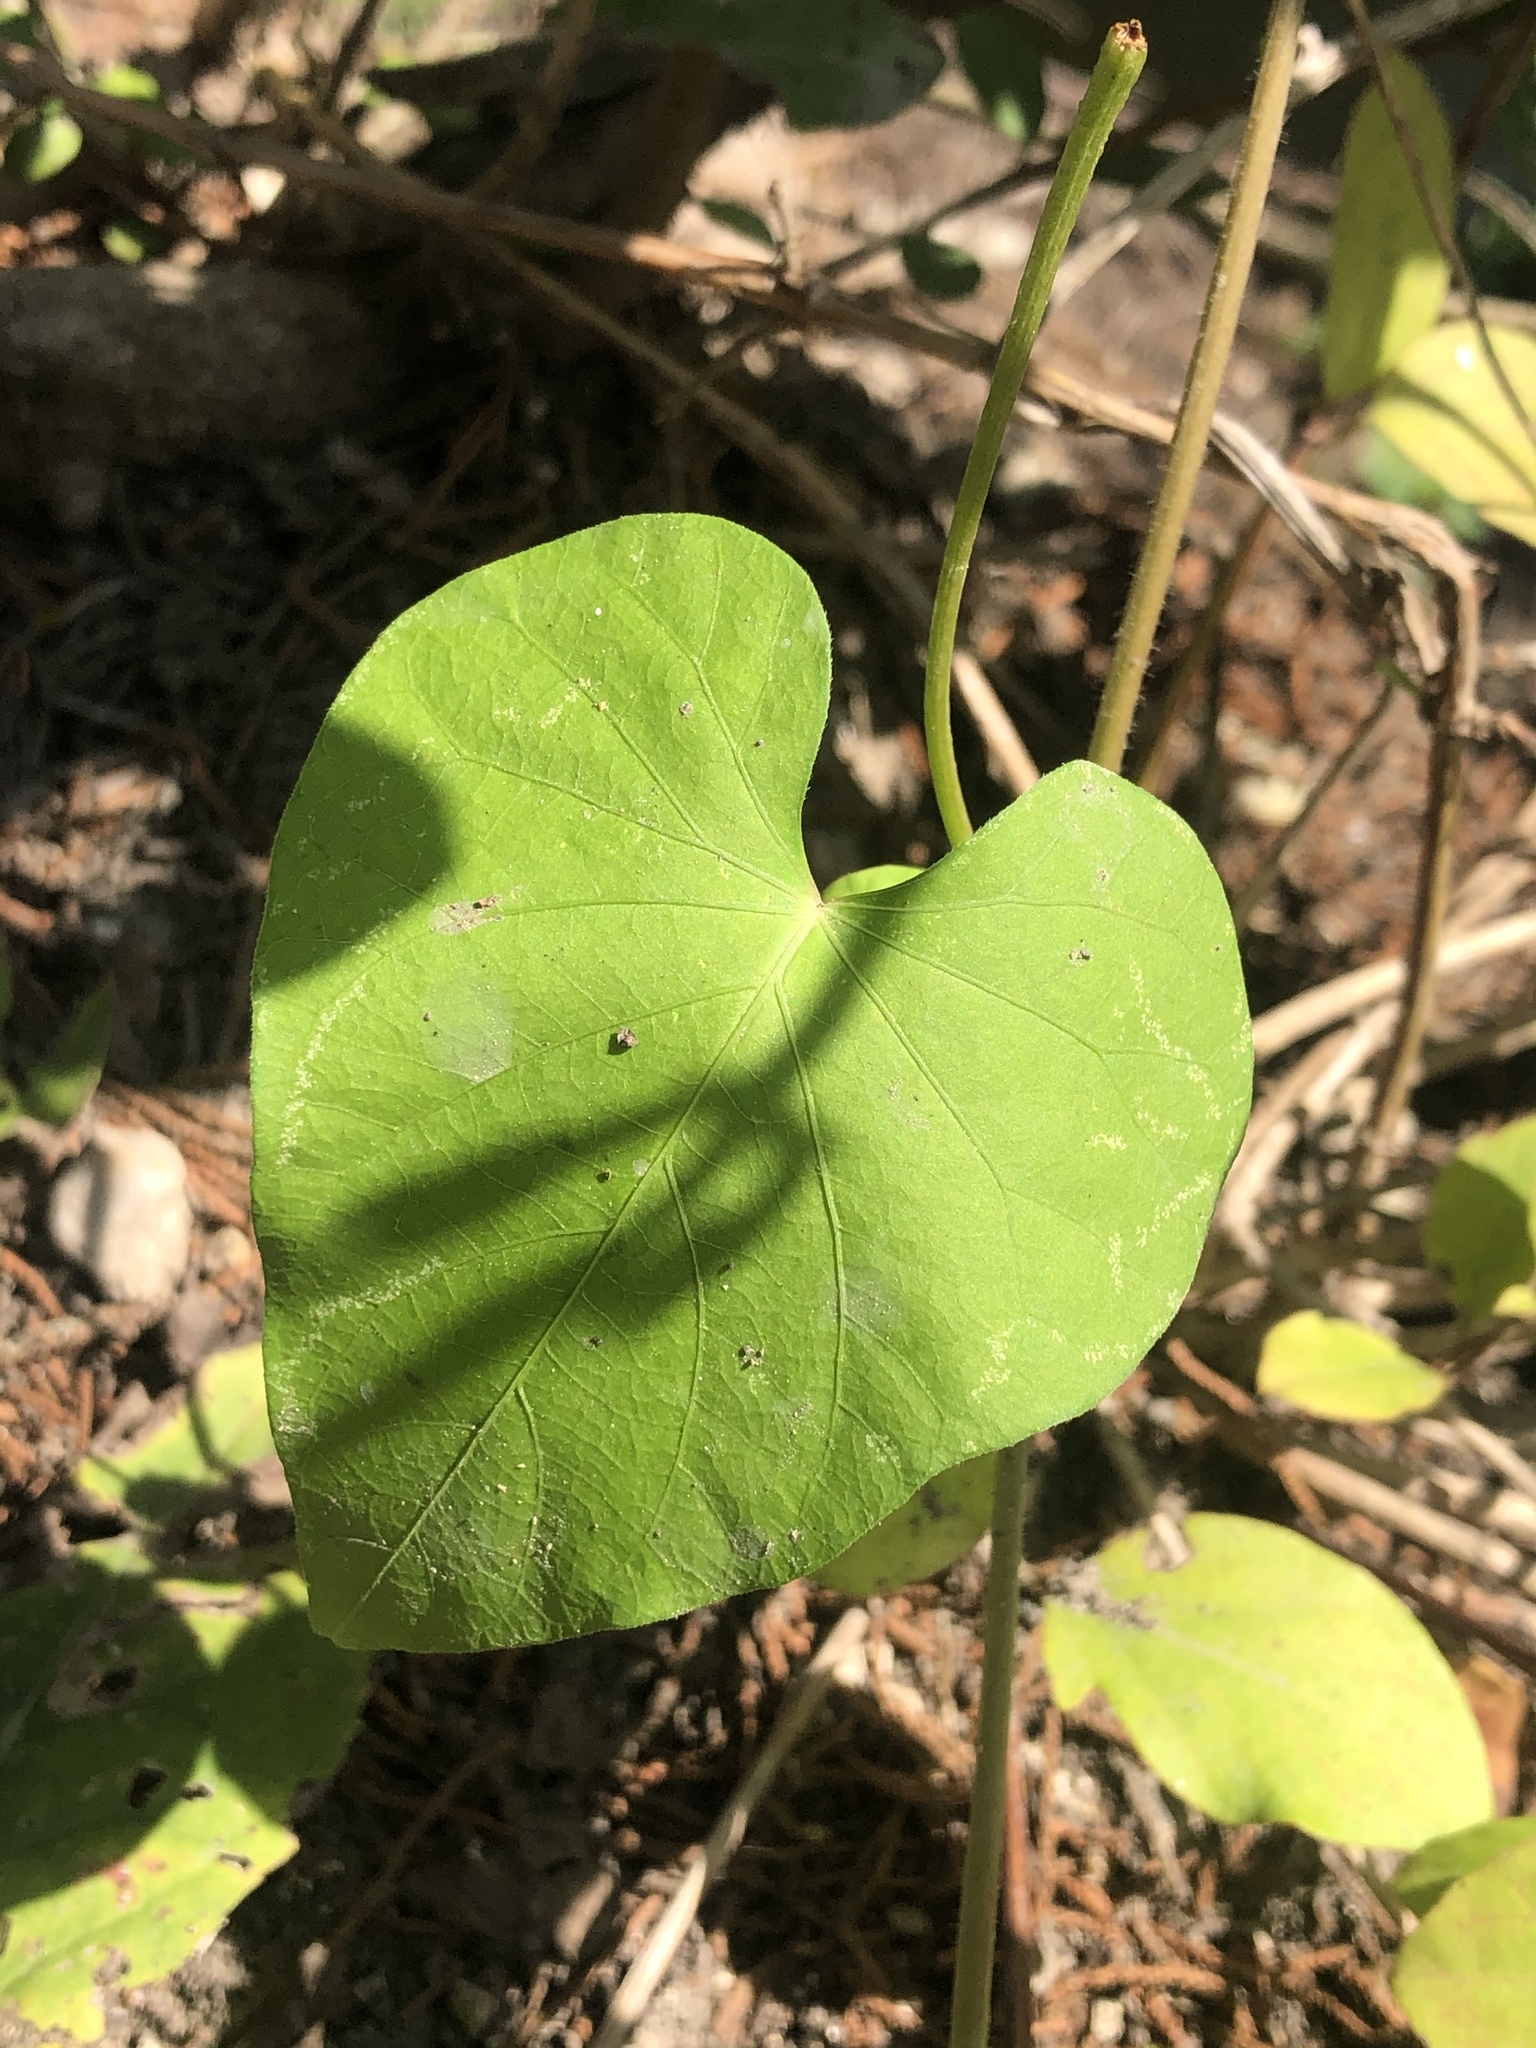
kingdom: Plantae
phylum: Tracheophyta
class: Magnoliopsida
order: Solanales
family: Convolvulaceae
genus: Ipomoea
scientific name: Ipomoea cordatotriloba
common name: Cotton morning glory
